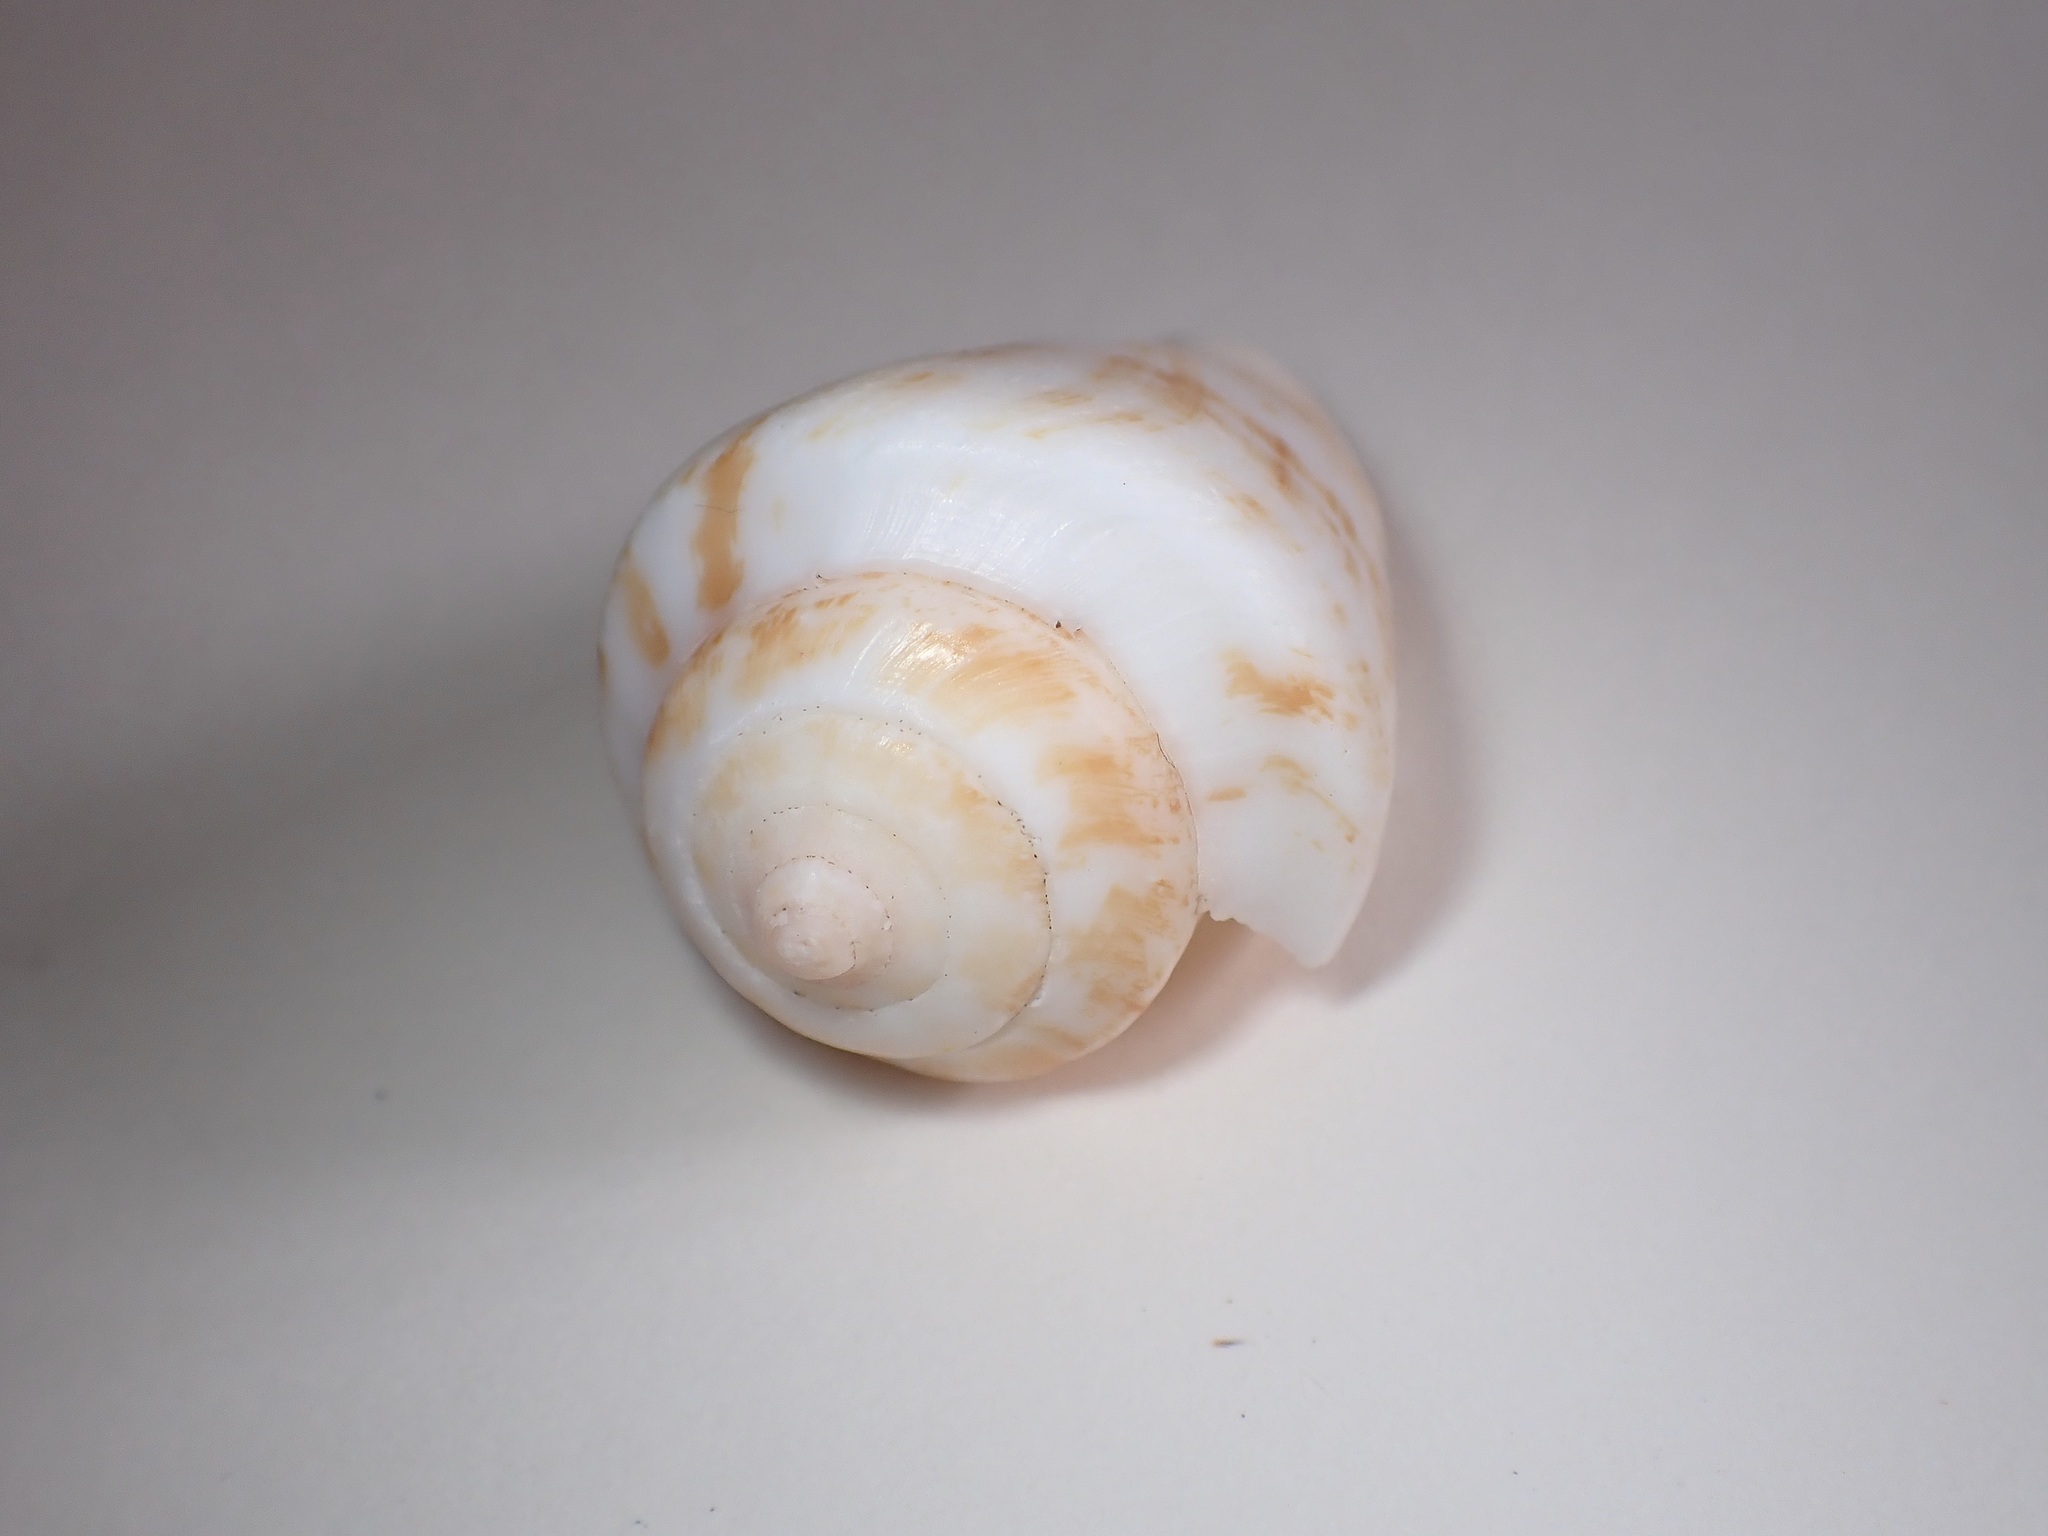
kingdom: Animalia
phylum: Mollusca
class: Gastropoda
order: Littorinimorpha
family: Strombidae
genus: Conomurex
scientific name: Conomurex persicus
